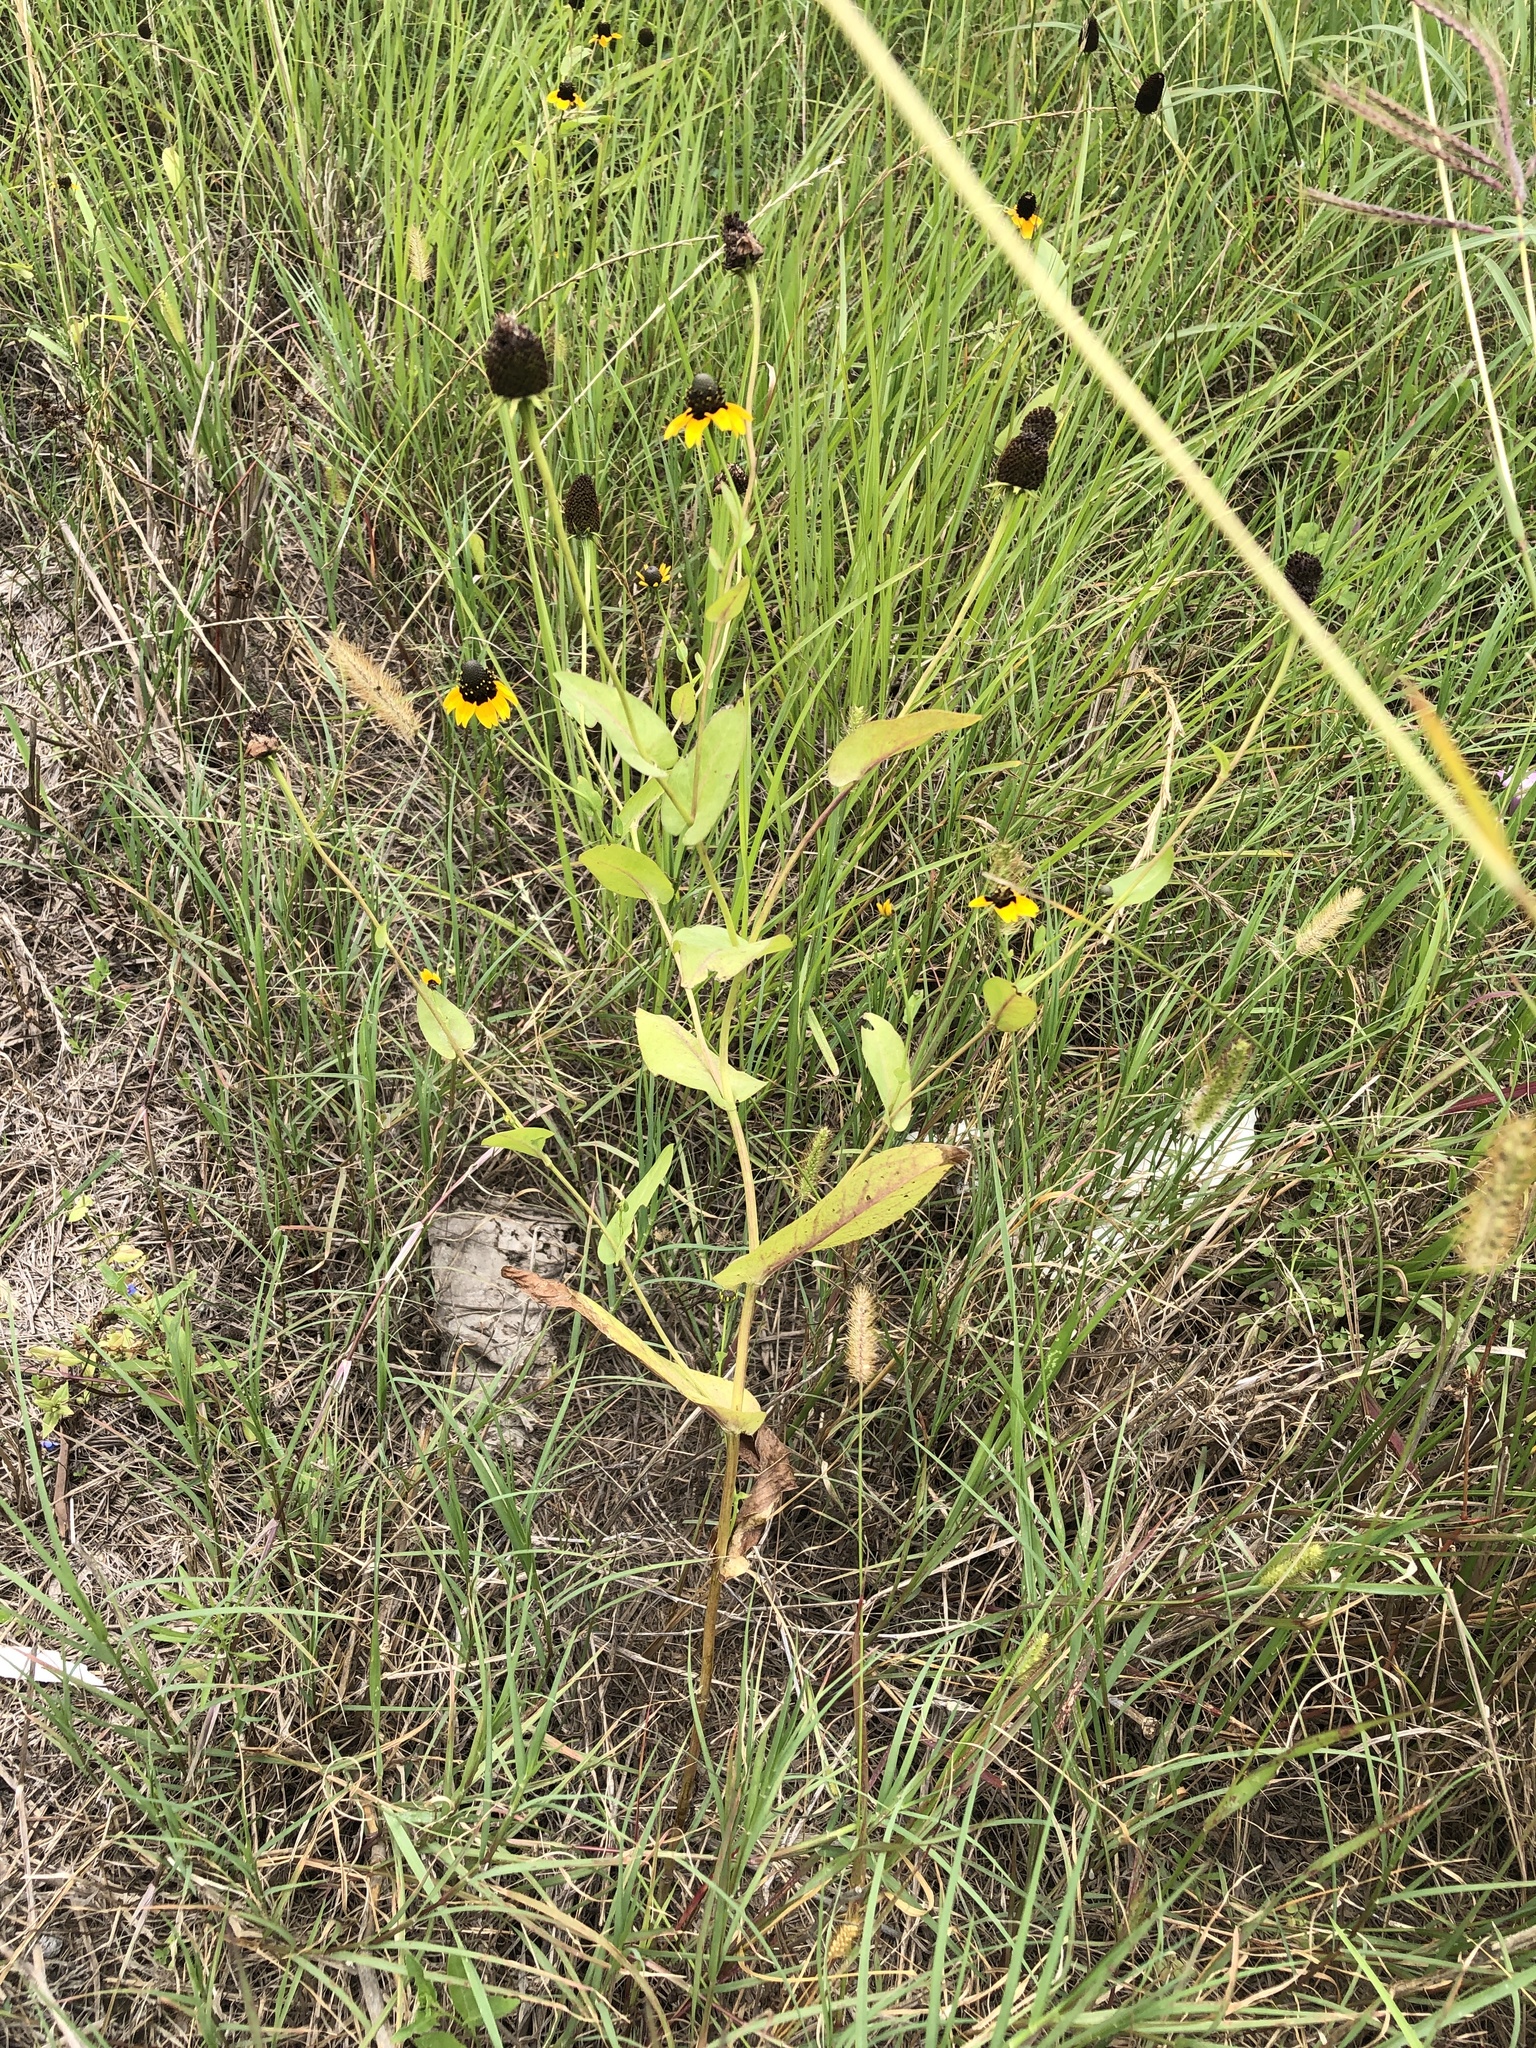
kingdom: Plantae
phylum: Tracheophyta
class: Magnoliopsida
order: Asterales
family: Asteraceae
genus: Rudbeckia
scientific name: Rudbeckia amplexicaulis
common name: Clasping-leaf coneflower
